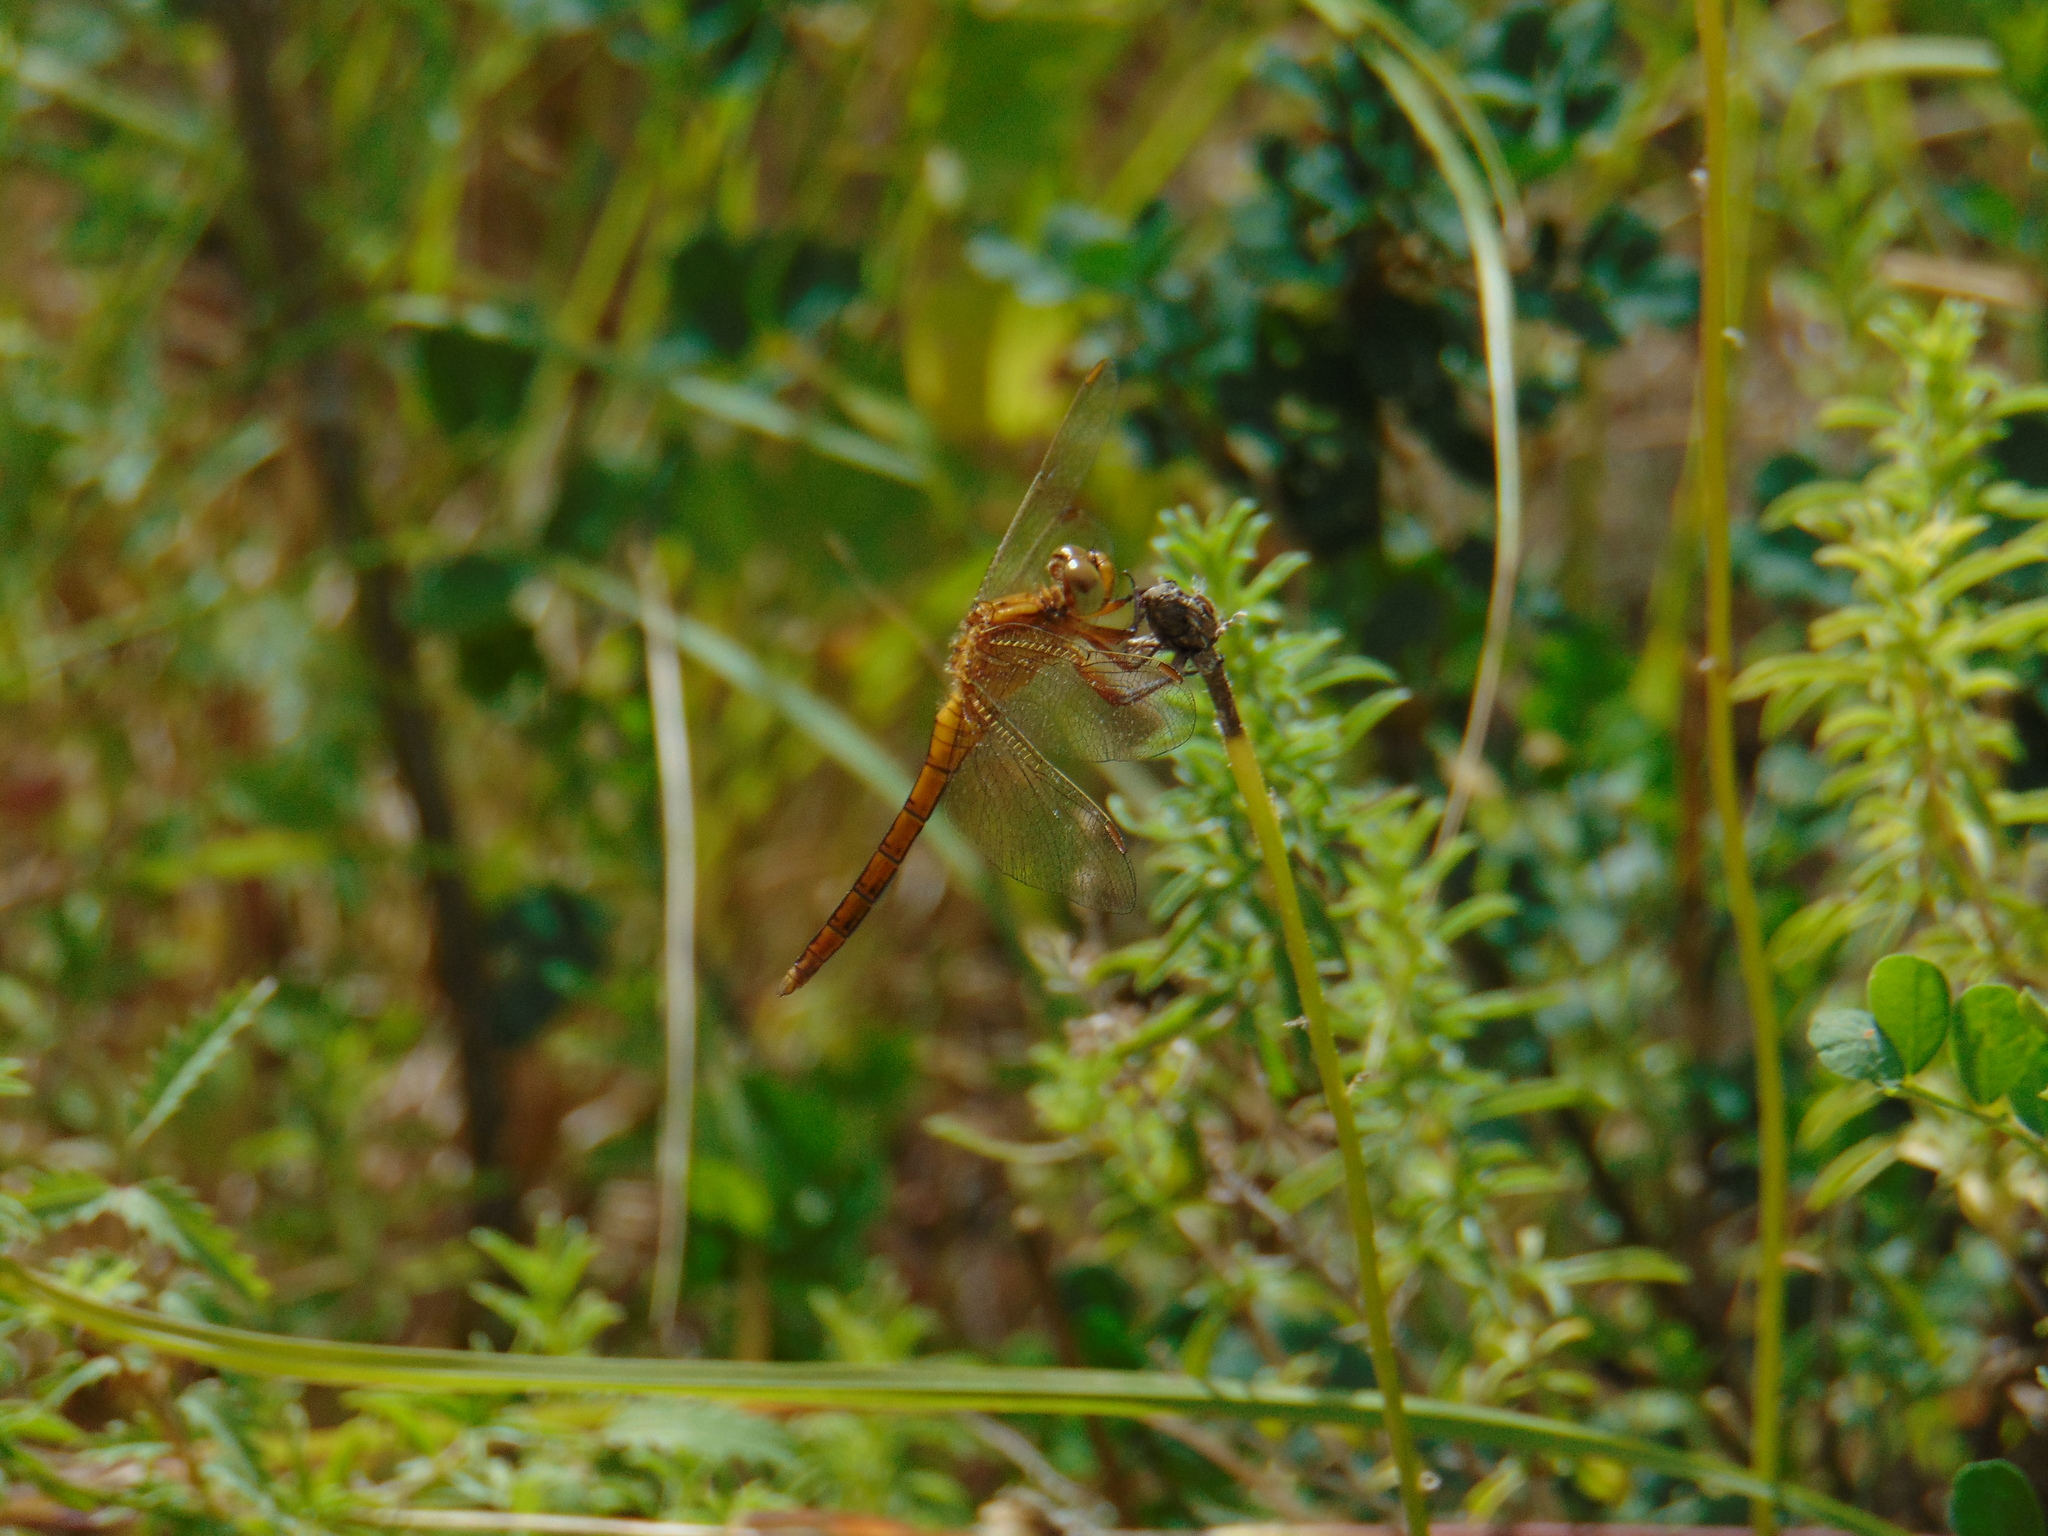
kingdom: Animalia
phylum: Arthropoda
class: Insecta
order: Odonata
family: Libellulidae
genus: Orthetrum
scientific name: Orthetrum coerulescens
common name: Keeled skimmer
